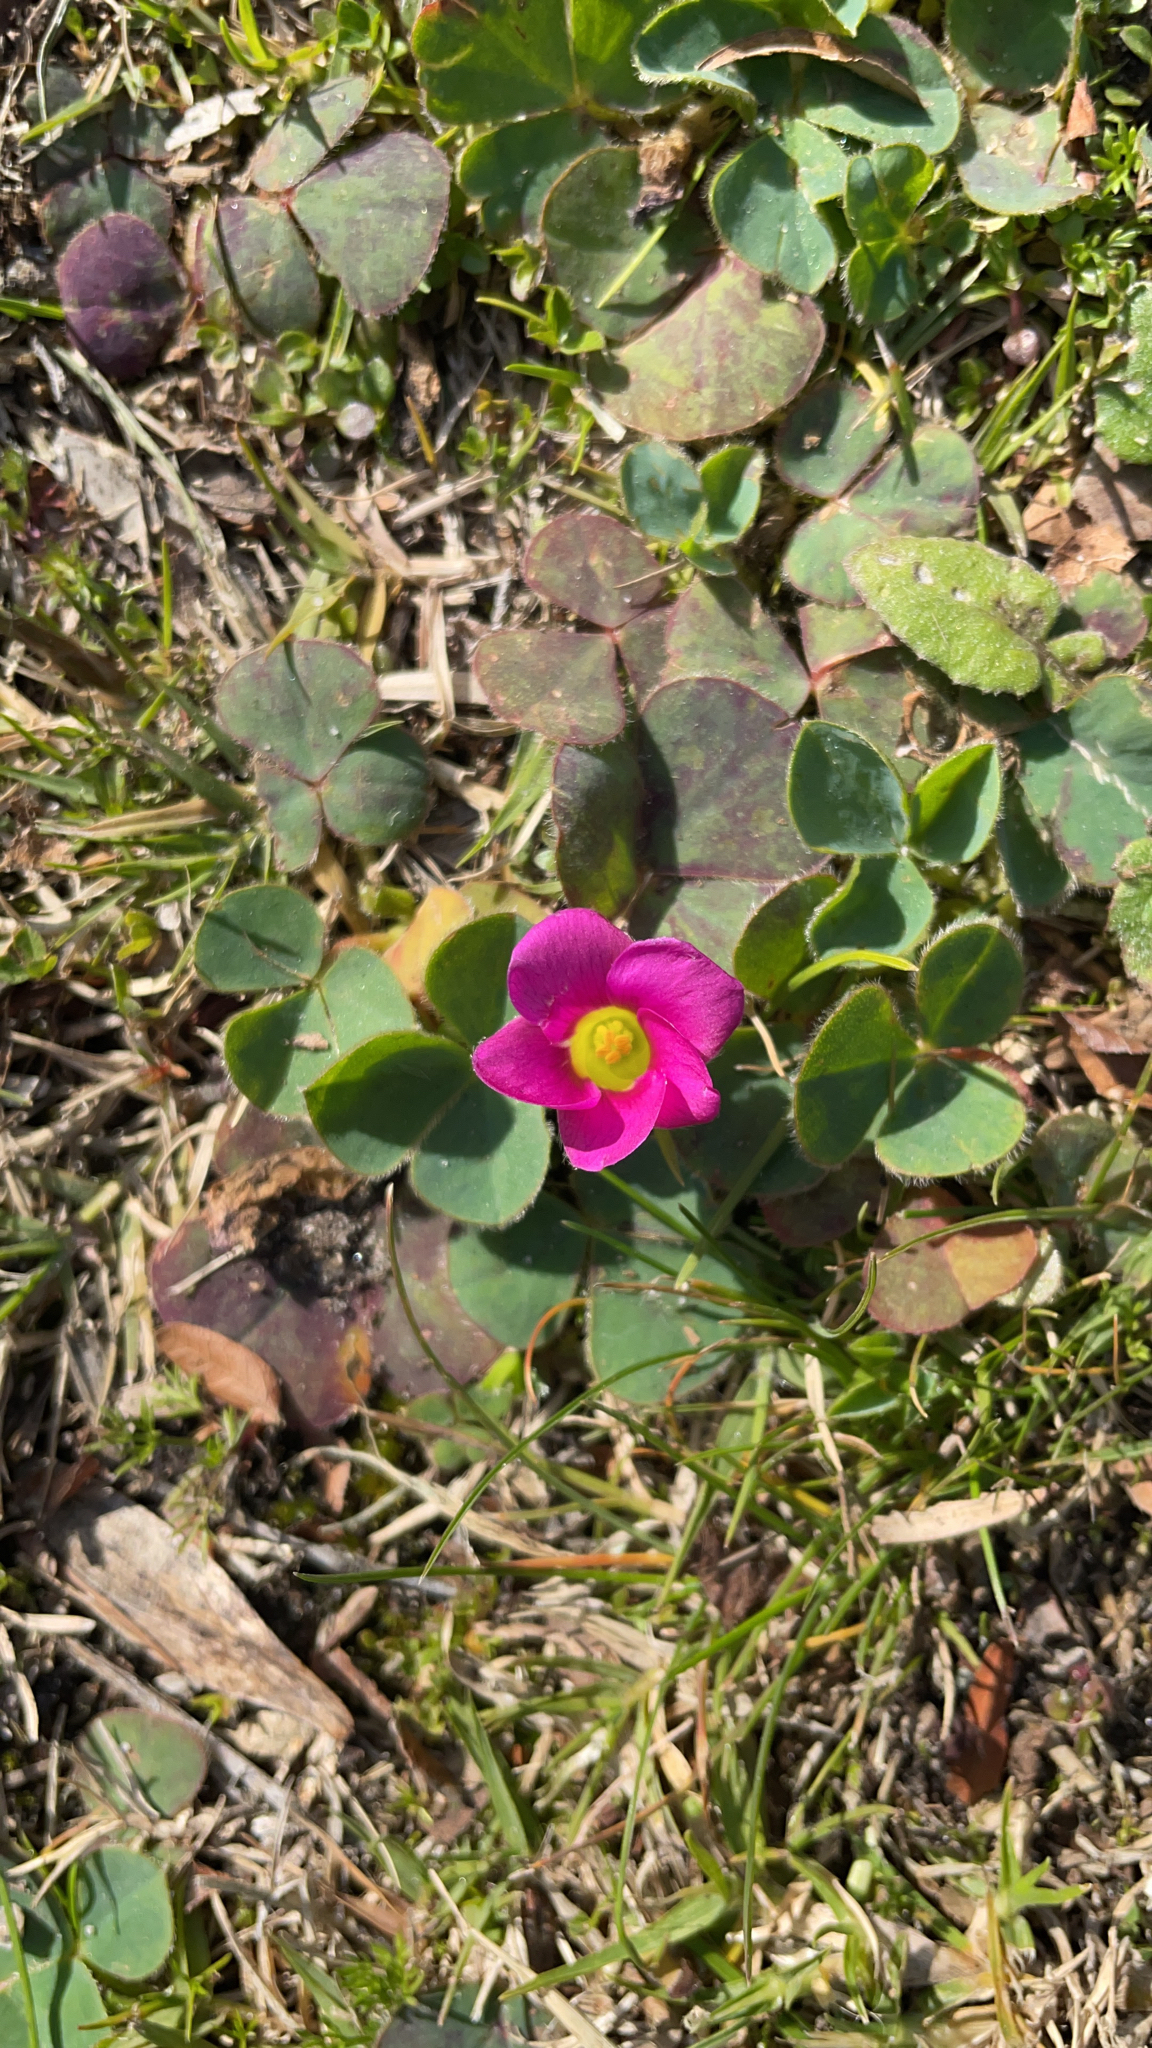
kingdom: Plantae
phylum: Tracheophyta
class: Magnoliopsida
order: Oxalidales
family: Oxalidaceae
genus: Oxalis
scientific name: Oxalis purpurea
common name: Purple woodsorrel
